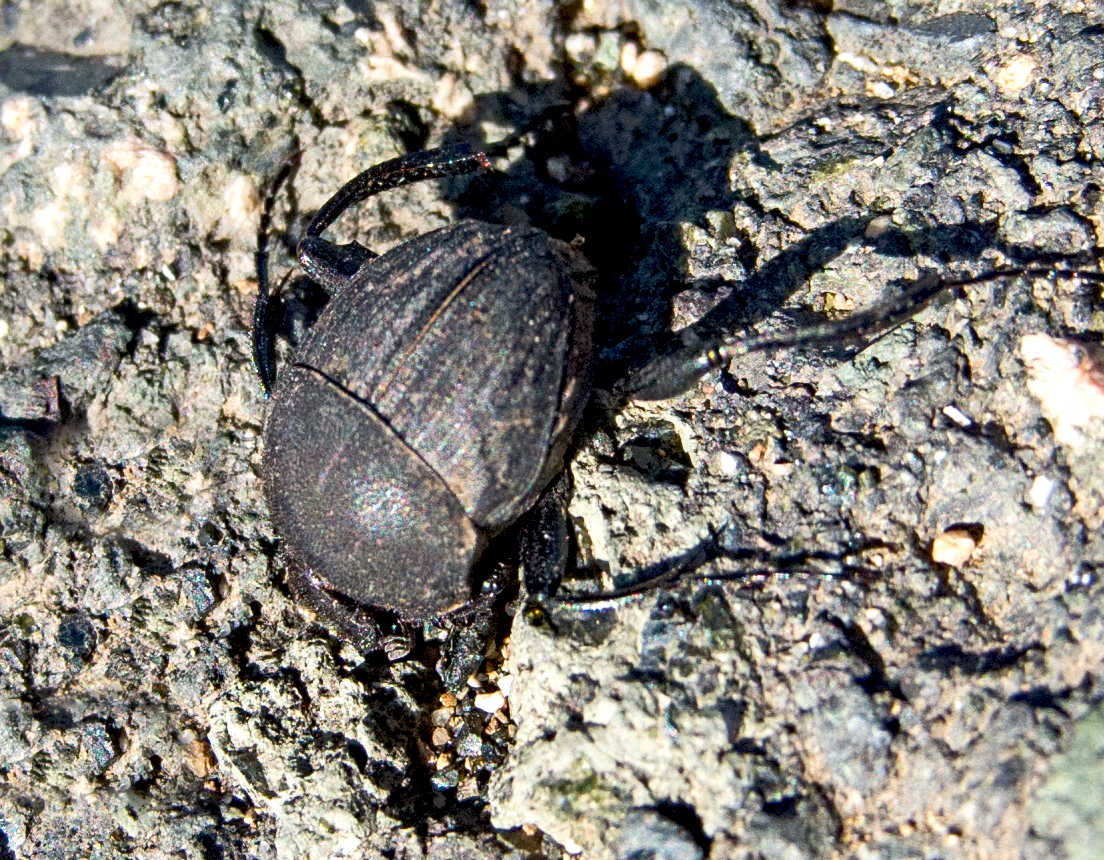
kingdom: Animalia
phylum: Arthropoda
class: Insecta
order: Coleoptera
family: Scarabaeidae
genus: Sisyphus
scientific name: Sisyphus schaefferi
